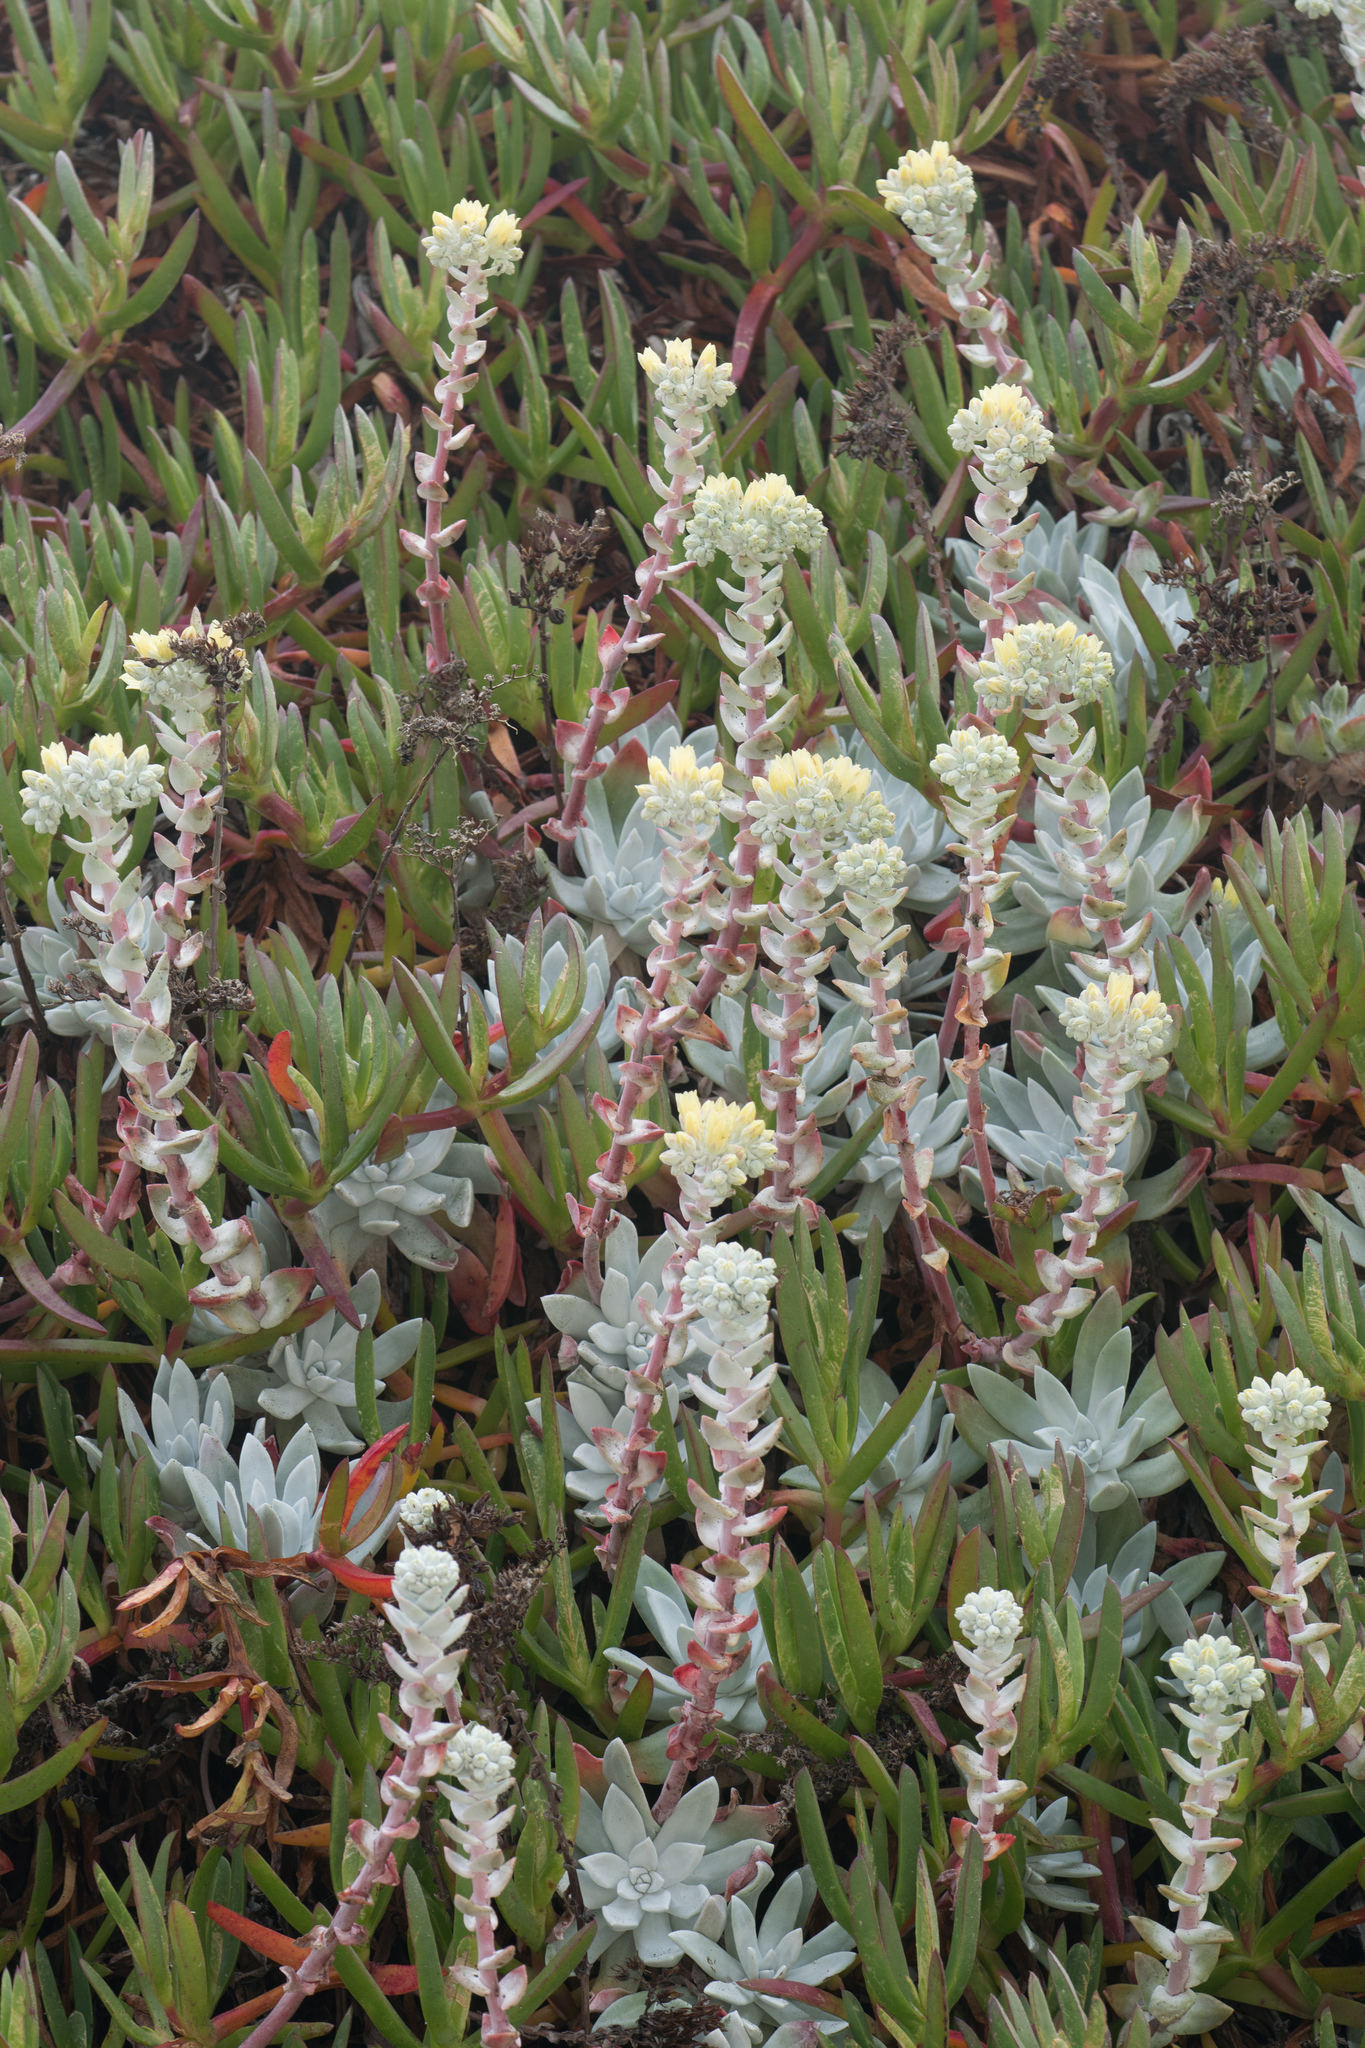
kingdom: Plantae
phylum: Tracheophyta
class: Magnoliopsida
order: Saxifragales
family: Crassulaceae
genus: Dudleya
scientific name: Dudleya farinosa
